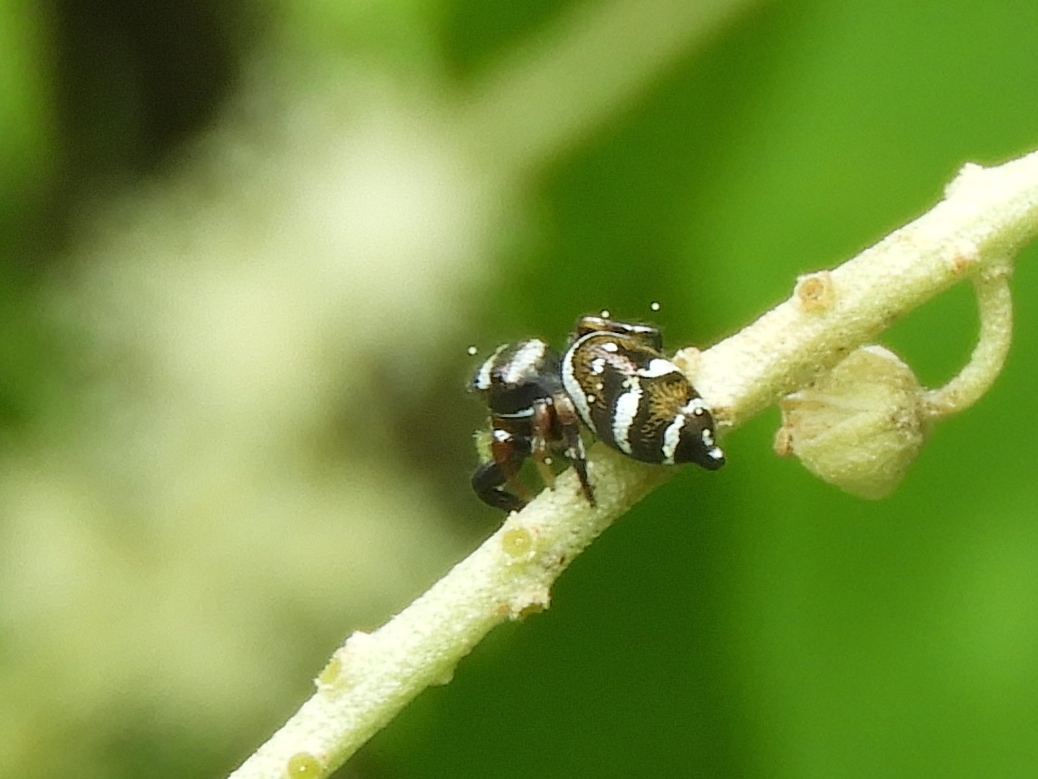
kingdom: Animalia
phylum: Arthropoda
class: Arachnida
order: Araneae
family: Salticidae
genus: Sassacus
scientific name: Sassacus
